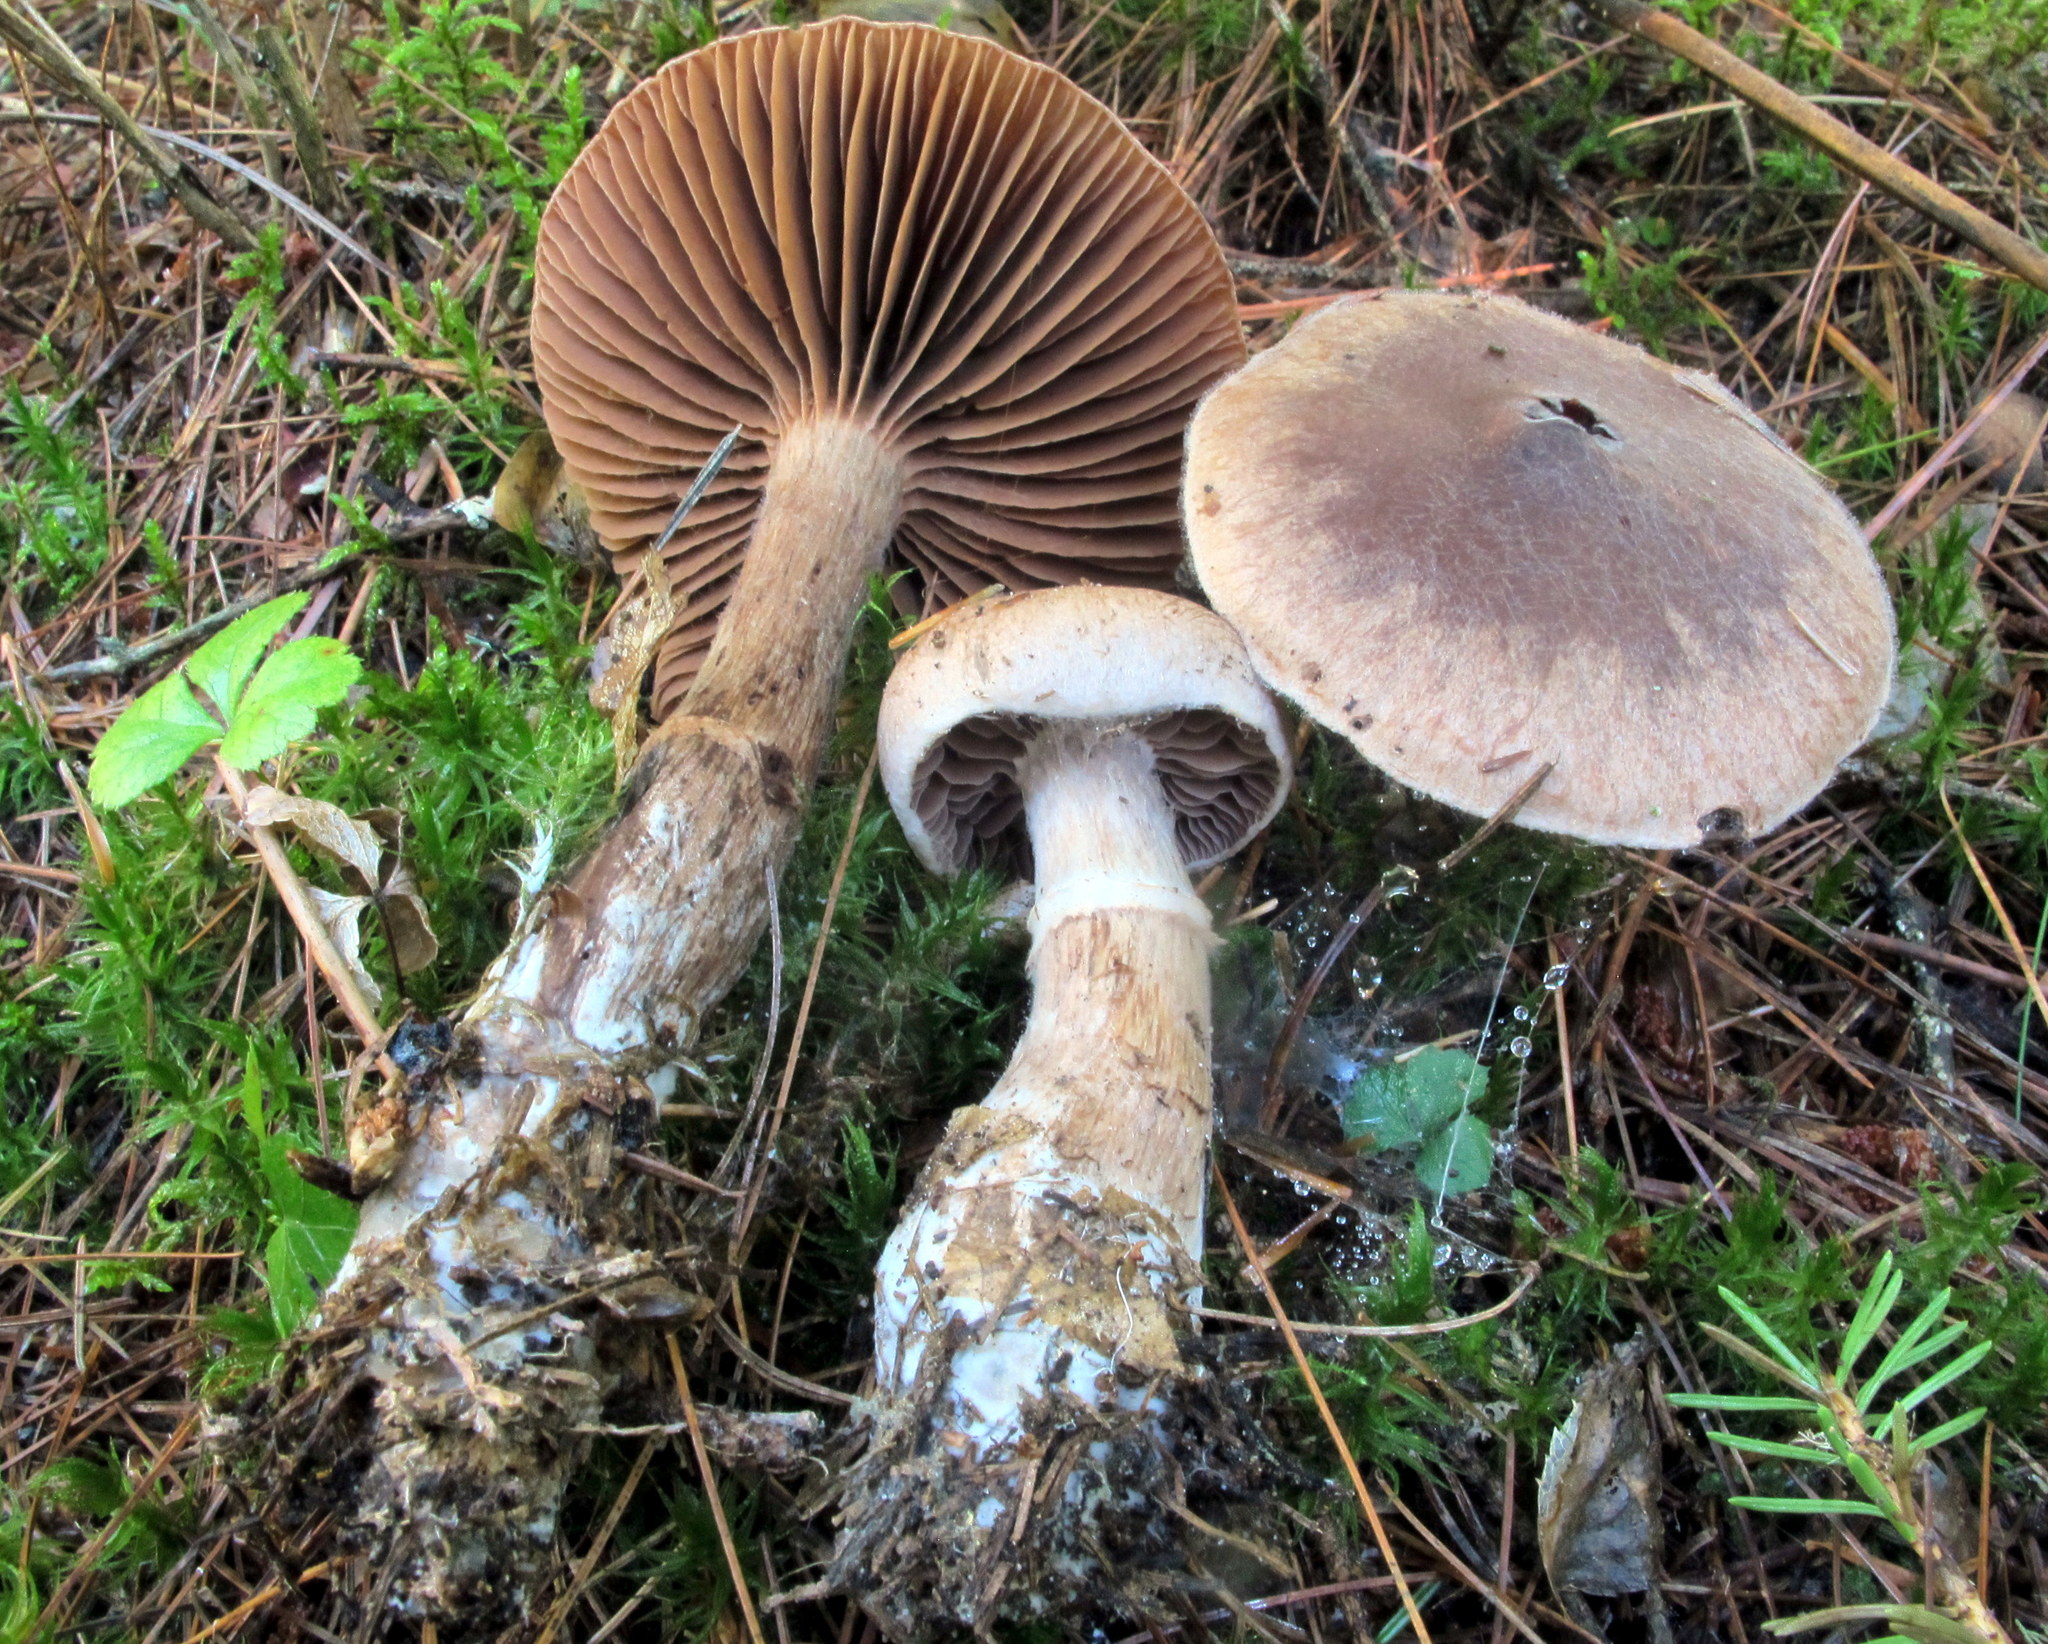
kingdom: Fungi
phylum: Basidiomycota
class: Agaricomycetes
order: Agaricales
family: Cortinariaceae
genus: Cortinarius
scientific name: Cortinarius torvus
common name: Stocking webcap
